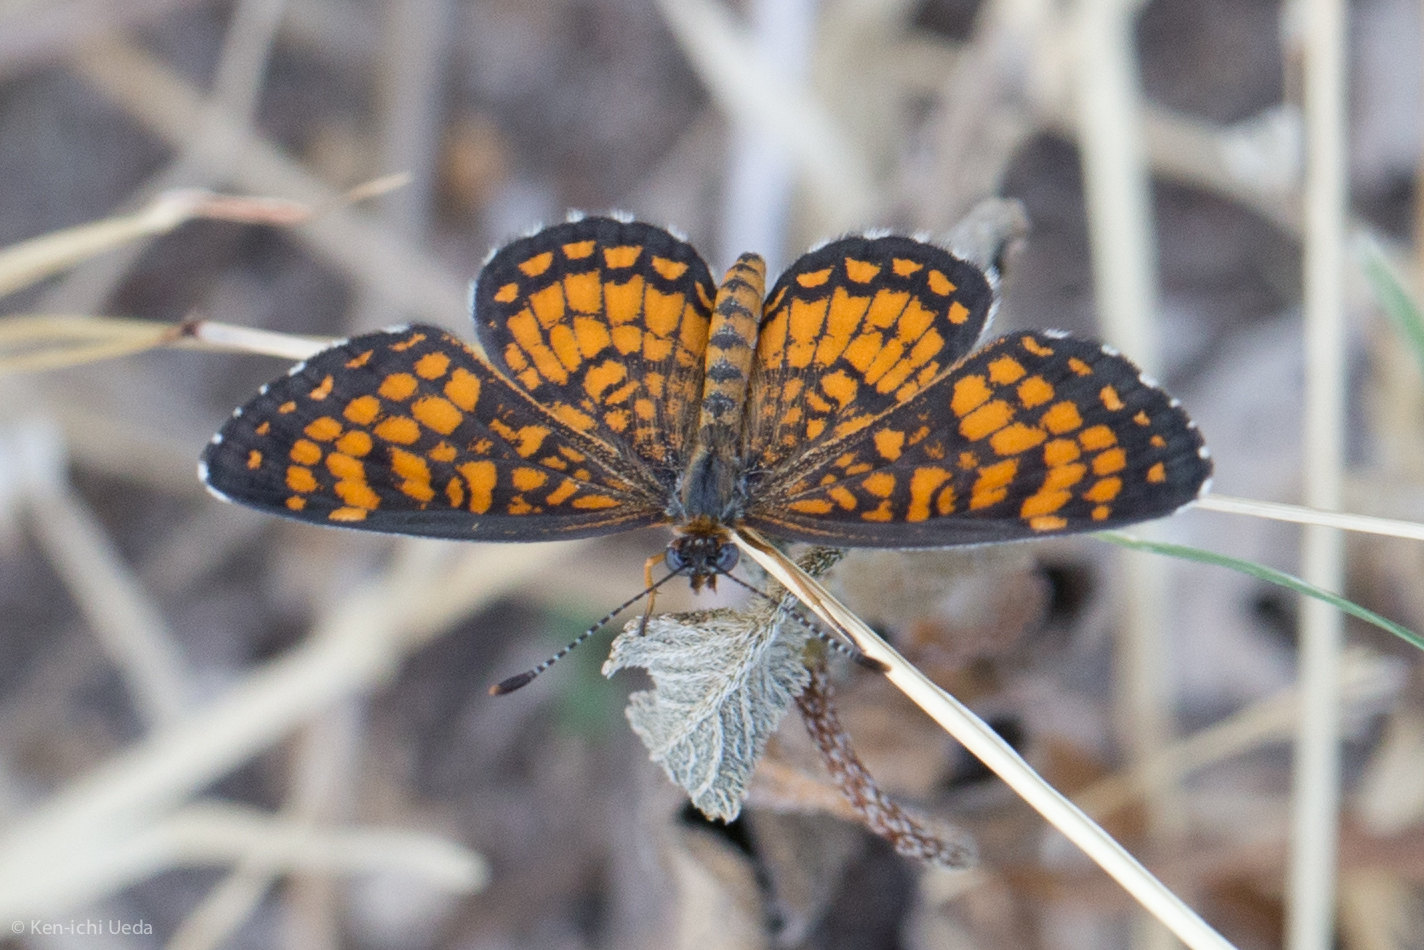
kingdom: Animalia
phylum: Arthropoda
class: Insecta
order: Lepidoptera
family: Nymphalidae
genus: Texola
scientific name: Texola
